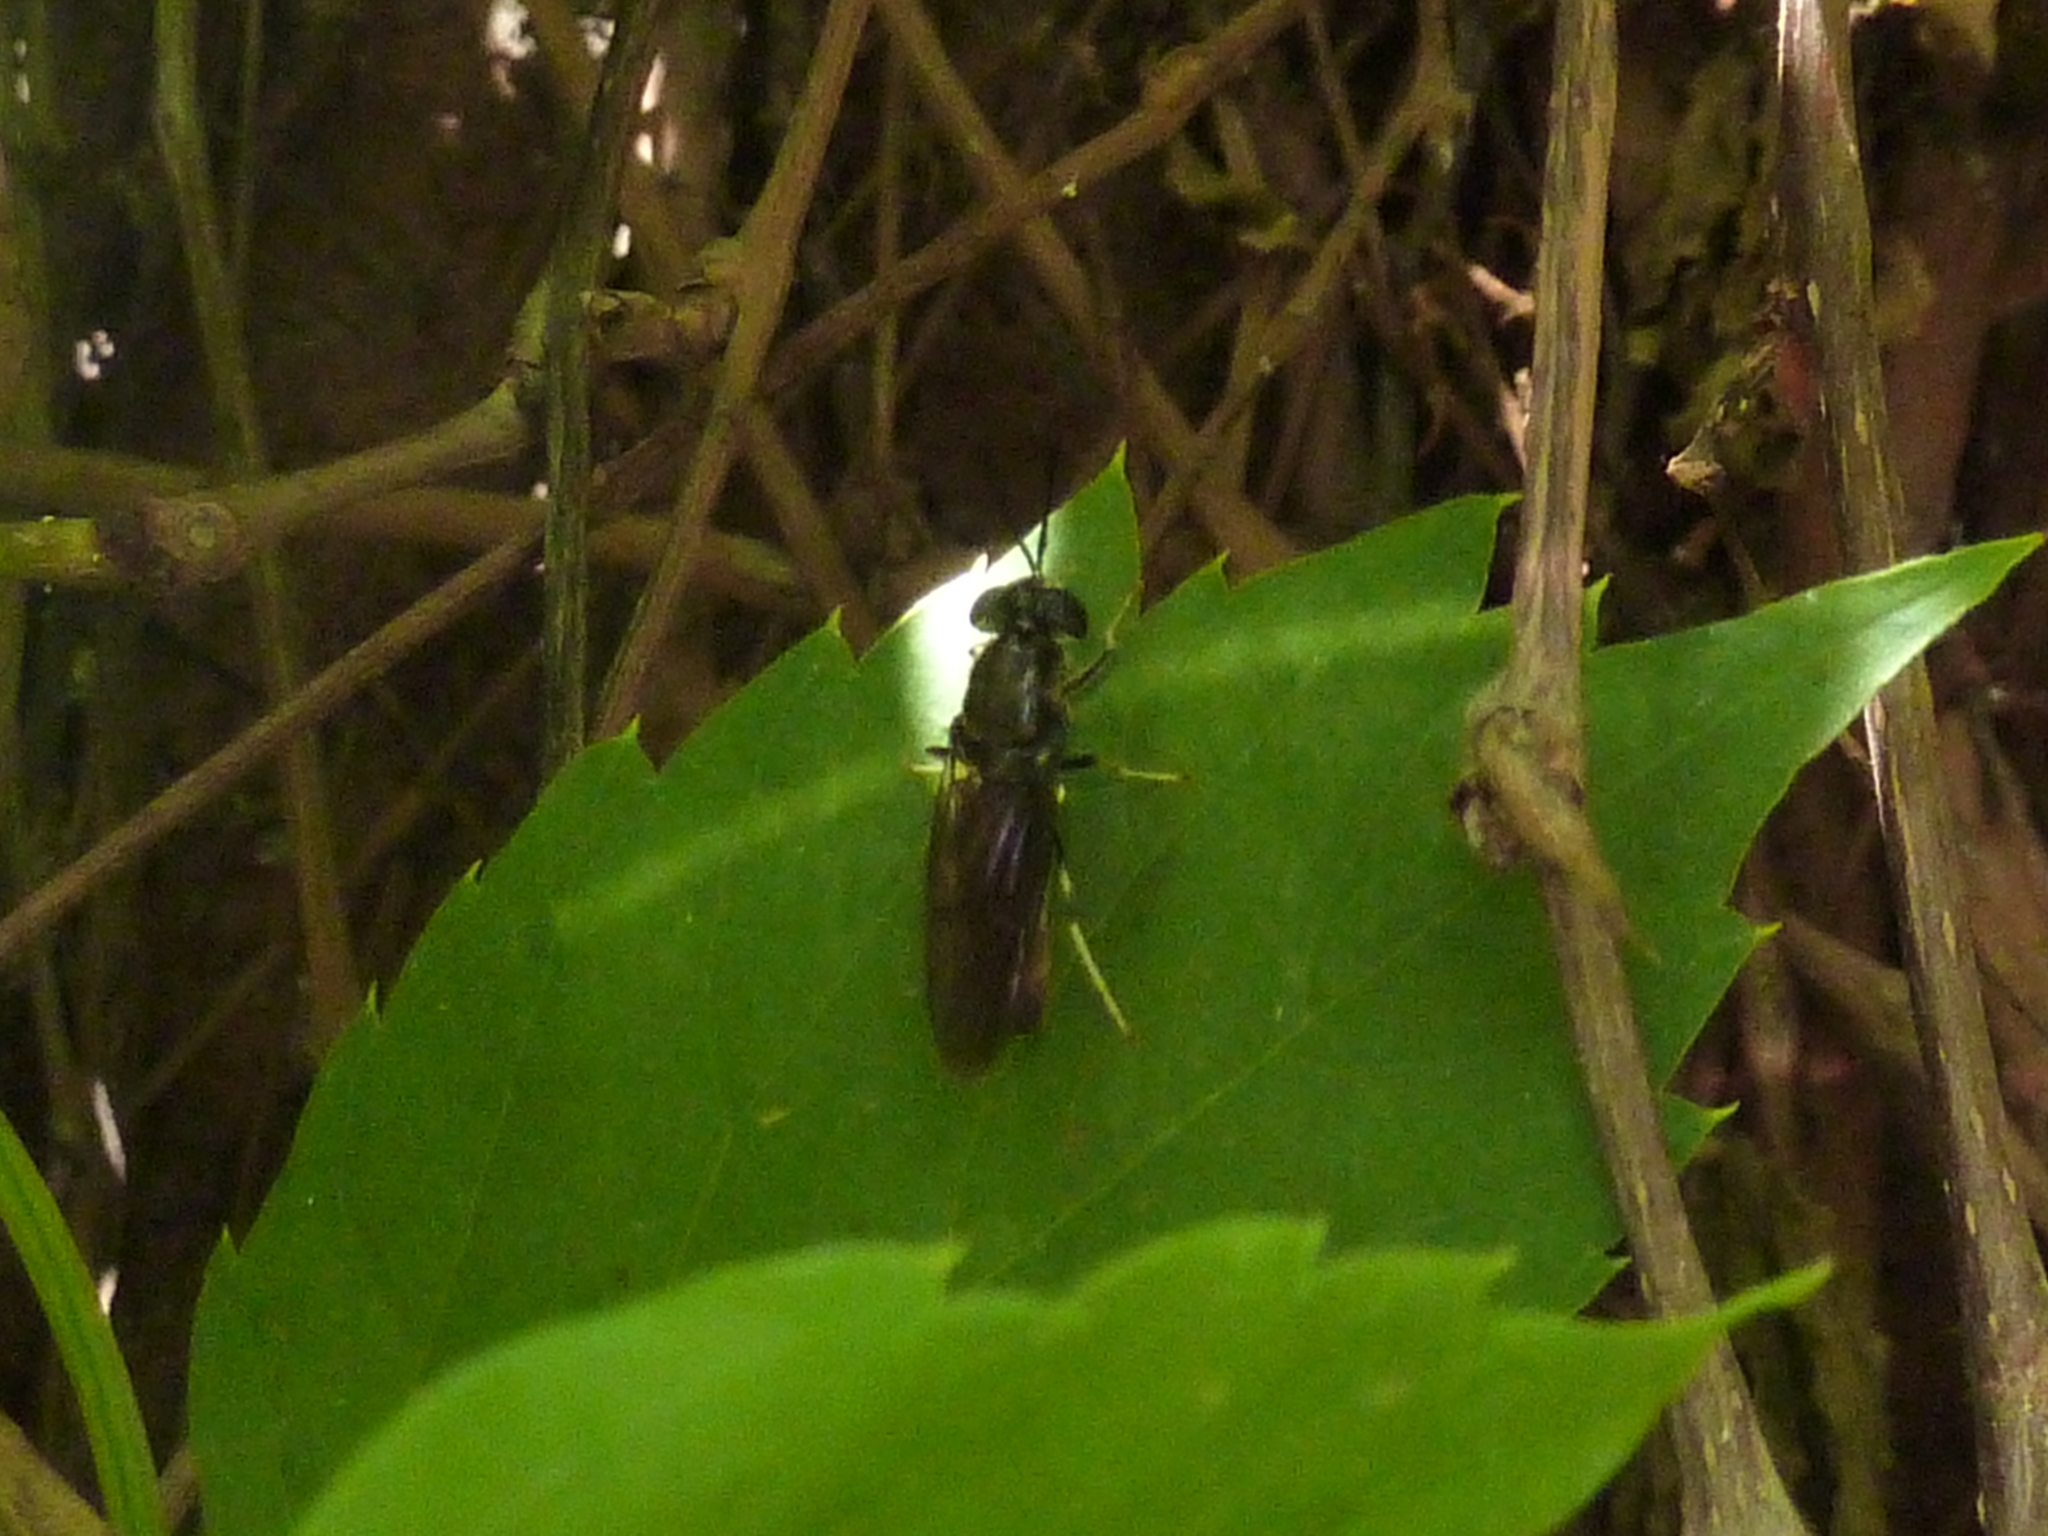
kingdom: Animalia
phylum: Arthropoda
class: Insecta
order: Diptera
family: Stratiomyidae
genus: Hermetia
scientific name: Hermetia illucens
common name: Black soldier fly
